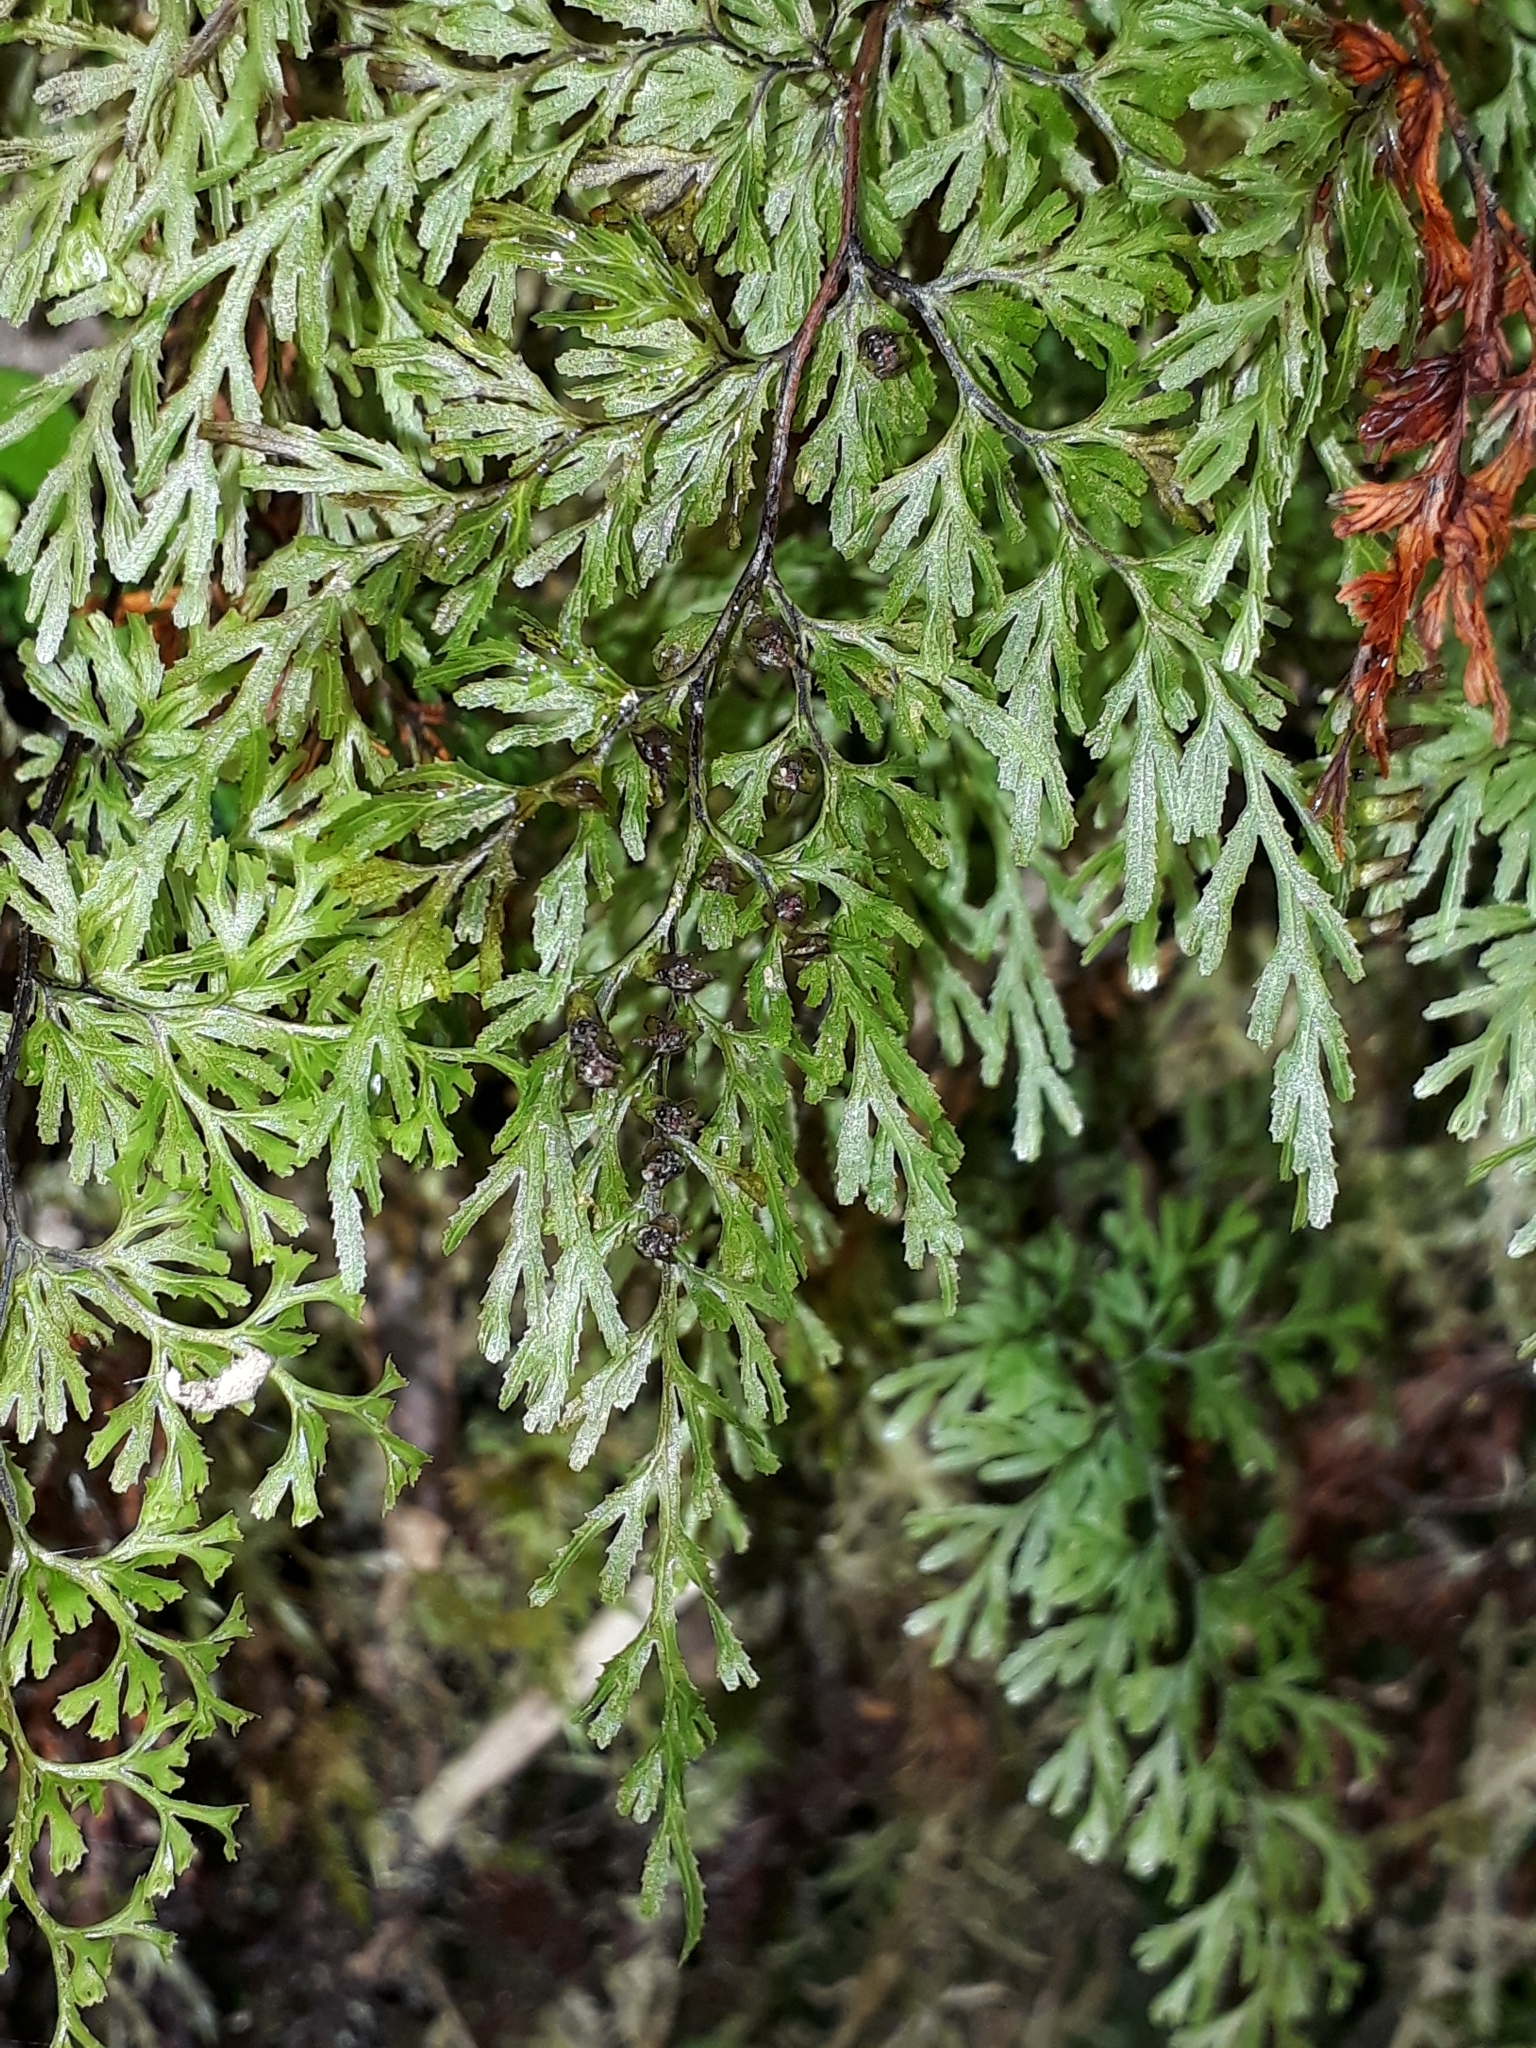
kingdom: Plantae
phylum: Tracheophyta
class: Polypodiopsida
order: Hymenophyllales
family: Hymenophyllaceae
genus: Hymenophyllum
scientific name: Hymenophyllum multifidum
